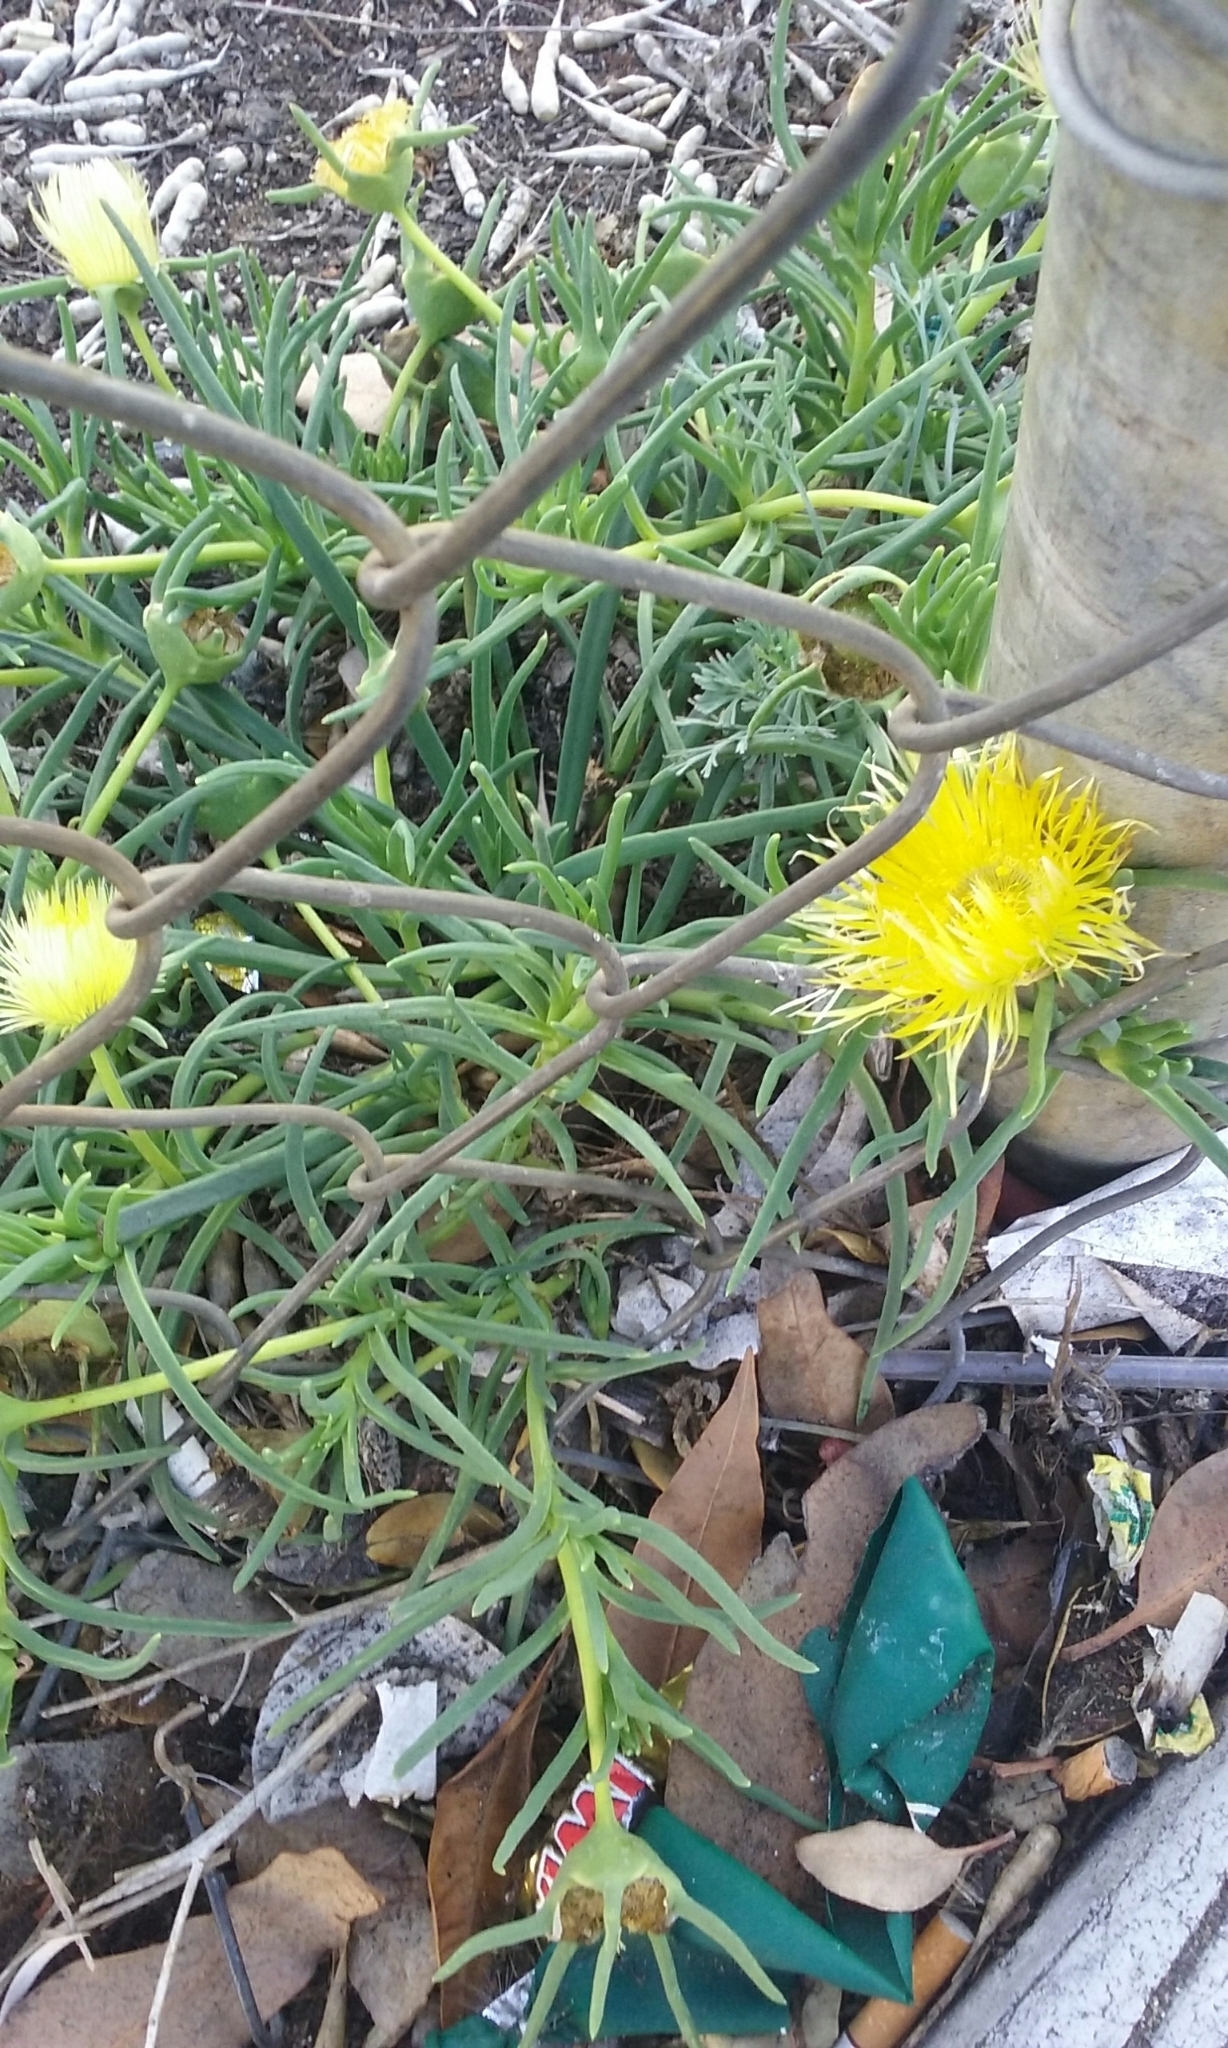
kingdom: Plantae
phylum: Tracheophyta
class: Magnoliopsida
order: Caryophyllales
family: Aizoaceae
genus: Conicosia
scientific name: Conicosia pugioniformis
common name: Narrow-leaved iceplant
